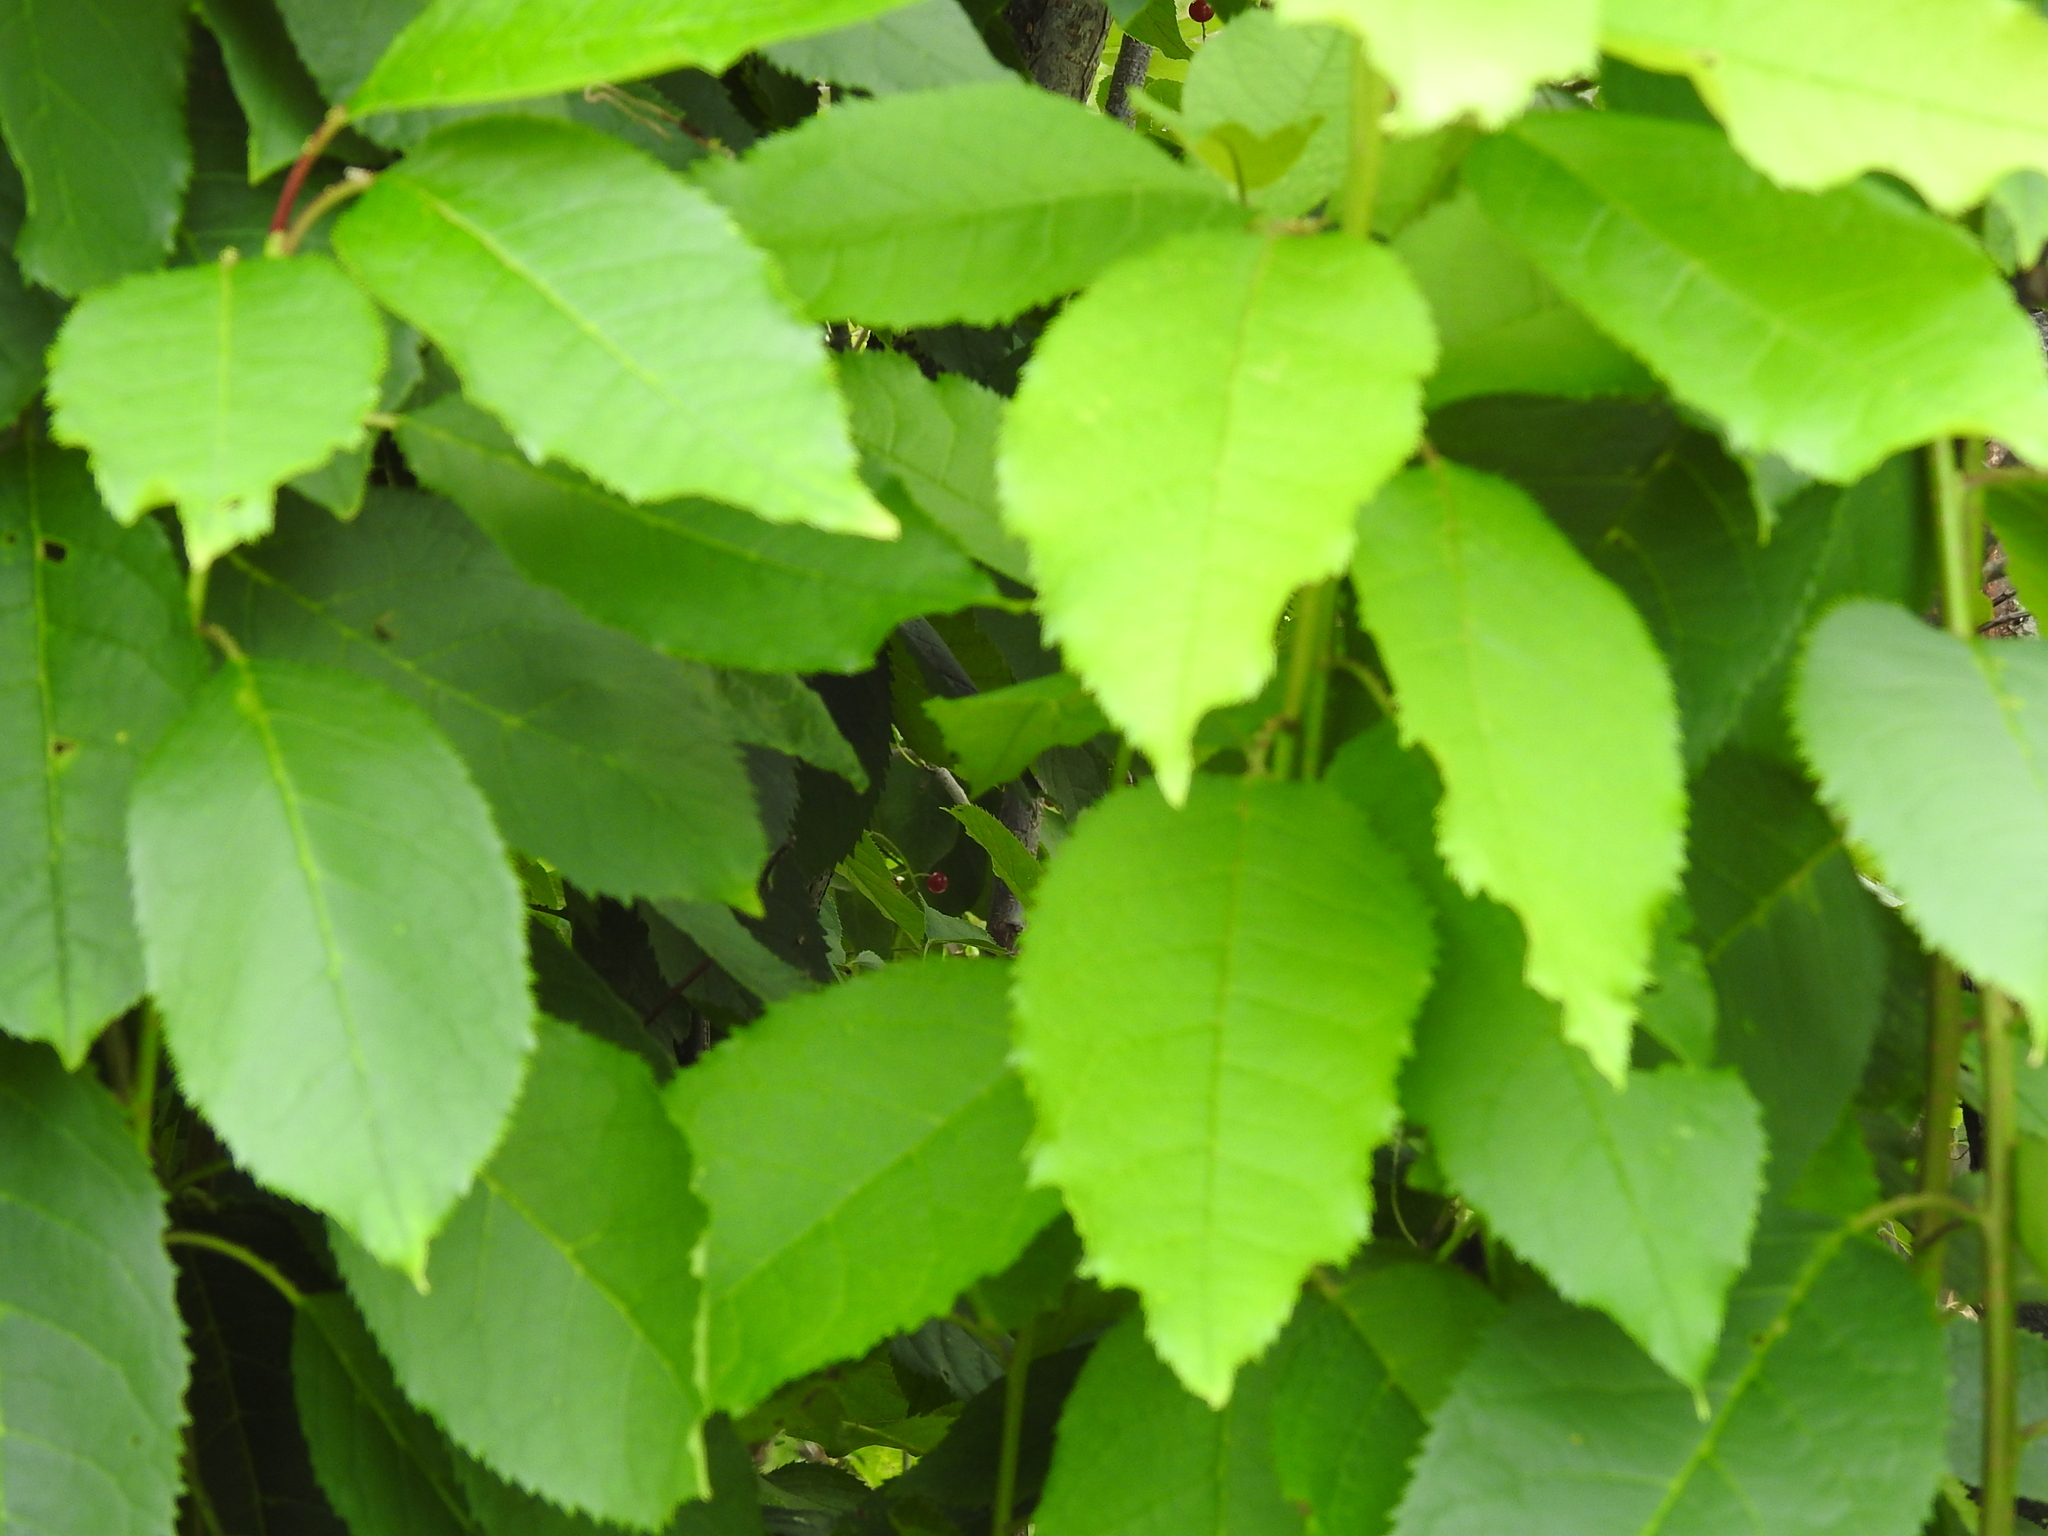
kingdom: Plantae
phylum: Tracheophyta
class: Magnoliopsida
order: Rosales
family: Rosaceae
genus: Prunus
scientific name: Prunus padus
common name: Bird cherry
